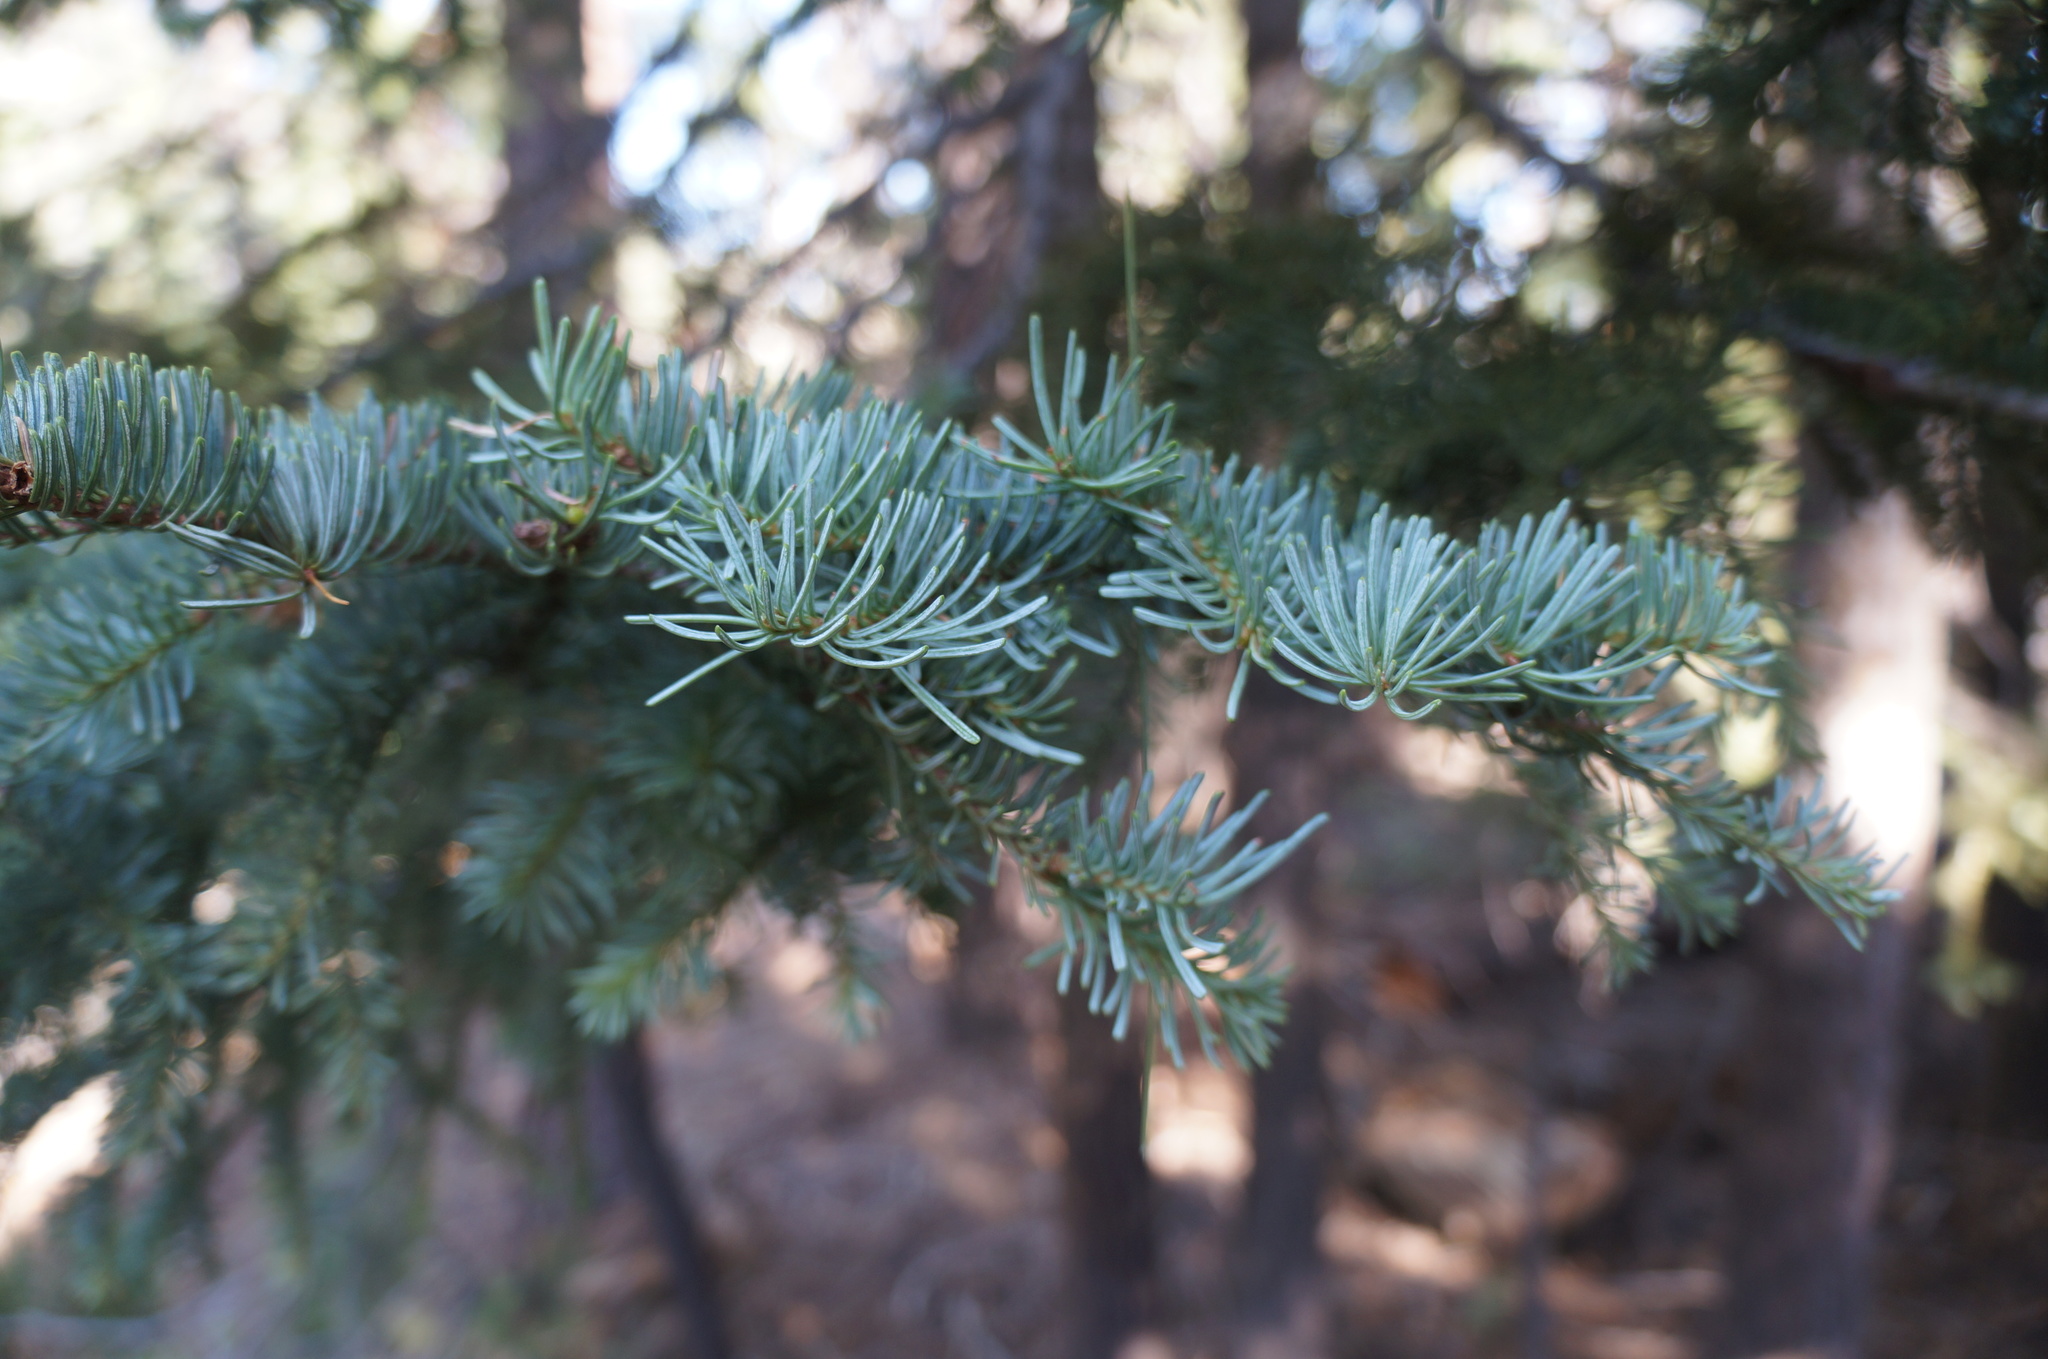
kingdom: Plantae
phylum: Tracheophyta
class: Pinopsida
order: Pinales
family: Pinaceae
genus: Abies
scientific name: Abies magnifica bis
